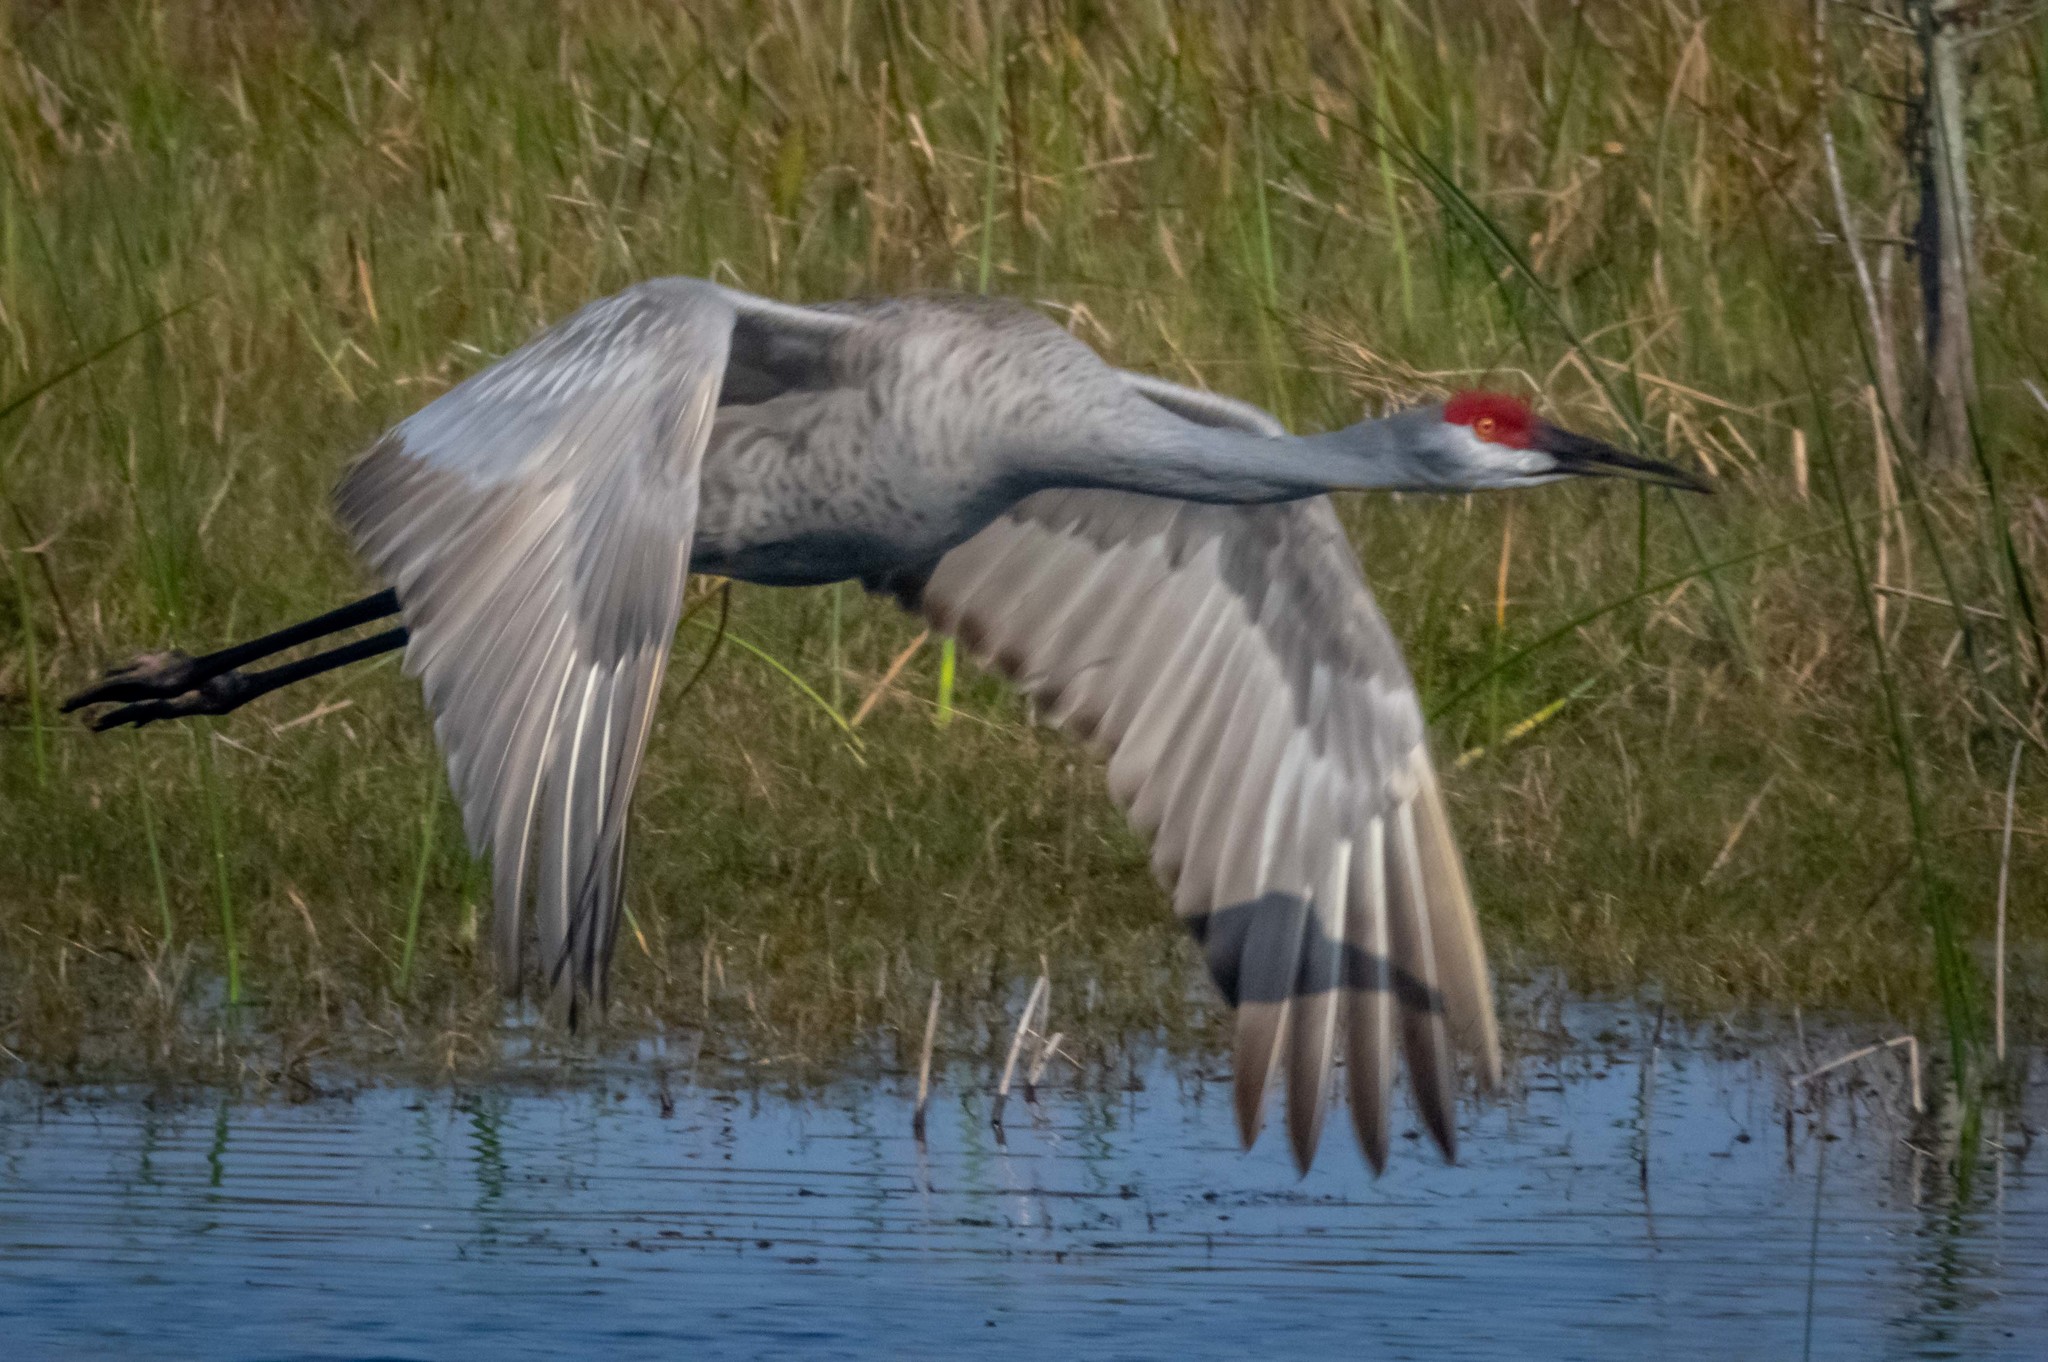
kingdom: Animalia
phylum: Chordata
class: Aves
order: Gruiformes
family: Gruidae
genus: Grus
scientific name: Grus canadensis
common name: Sandhill crane
